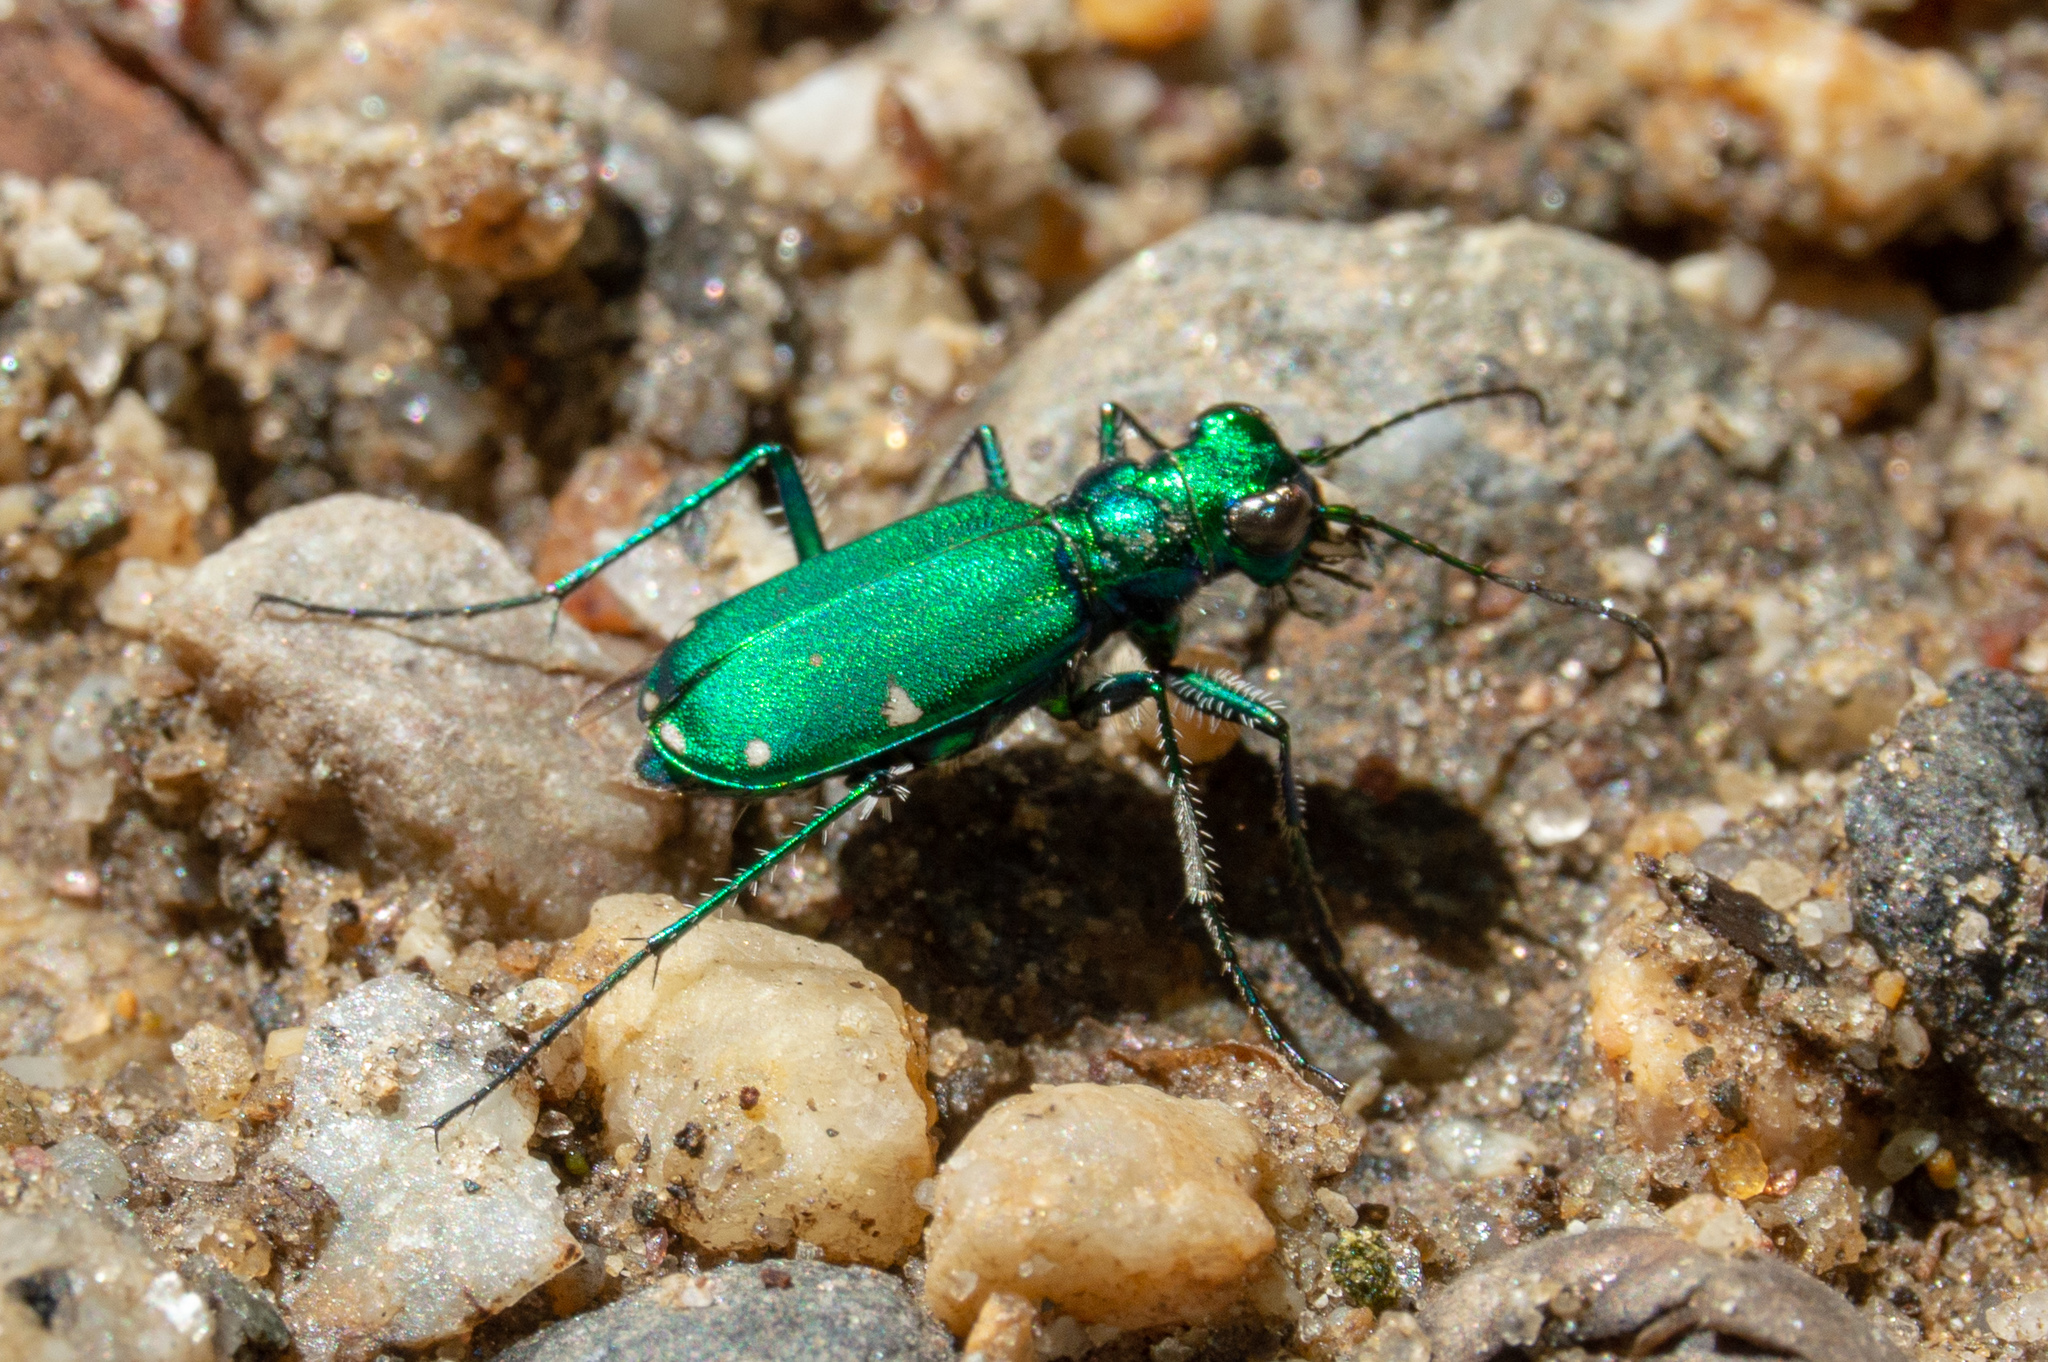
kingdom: Animalia
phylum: Arthropoda
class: Insecta
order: Coleoptera
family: Carabidae
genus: Cicindela
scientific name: Cicindela sexguttata
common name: Six-spotted tiger beetle
